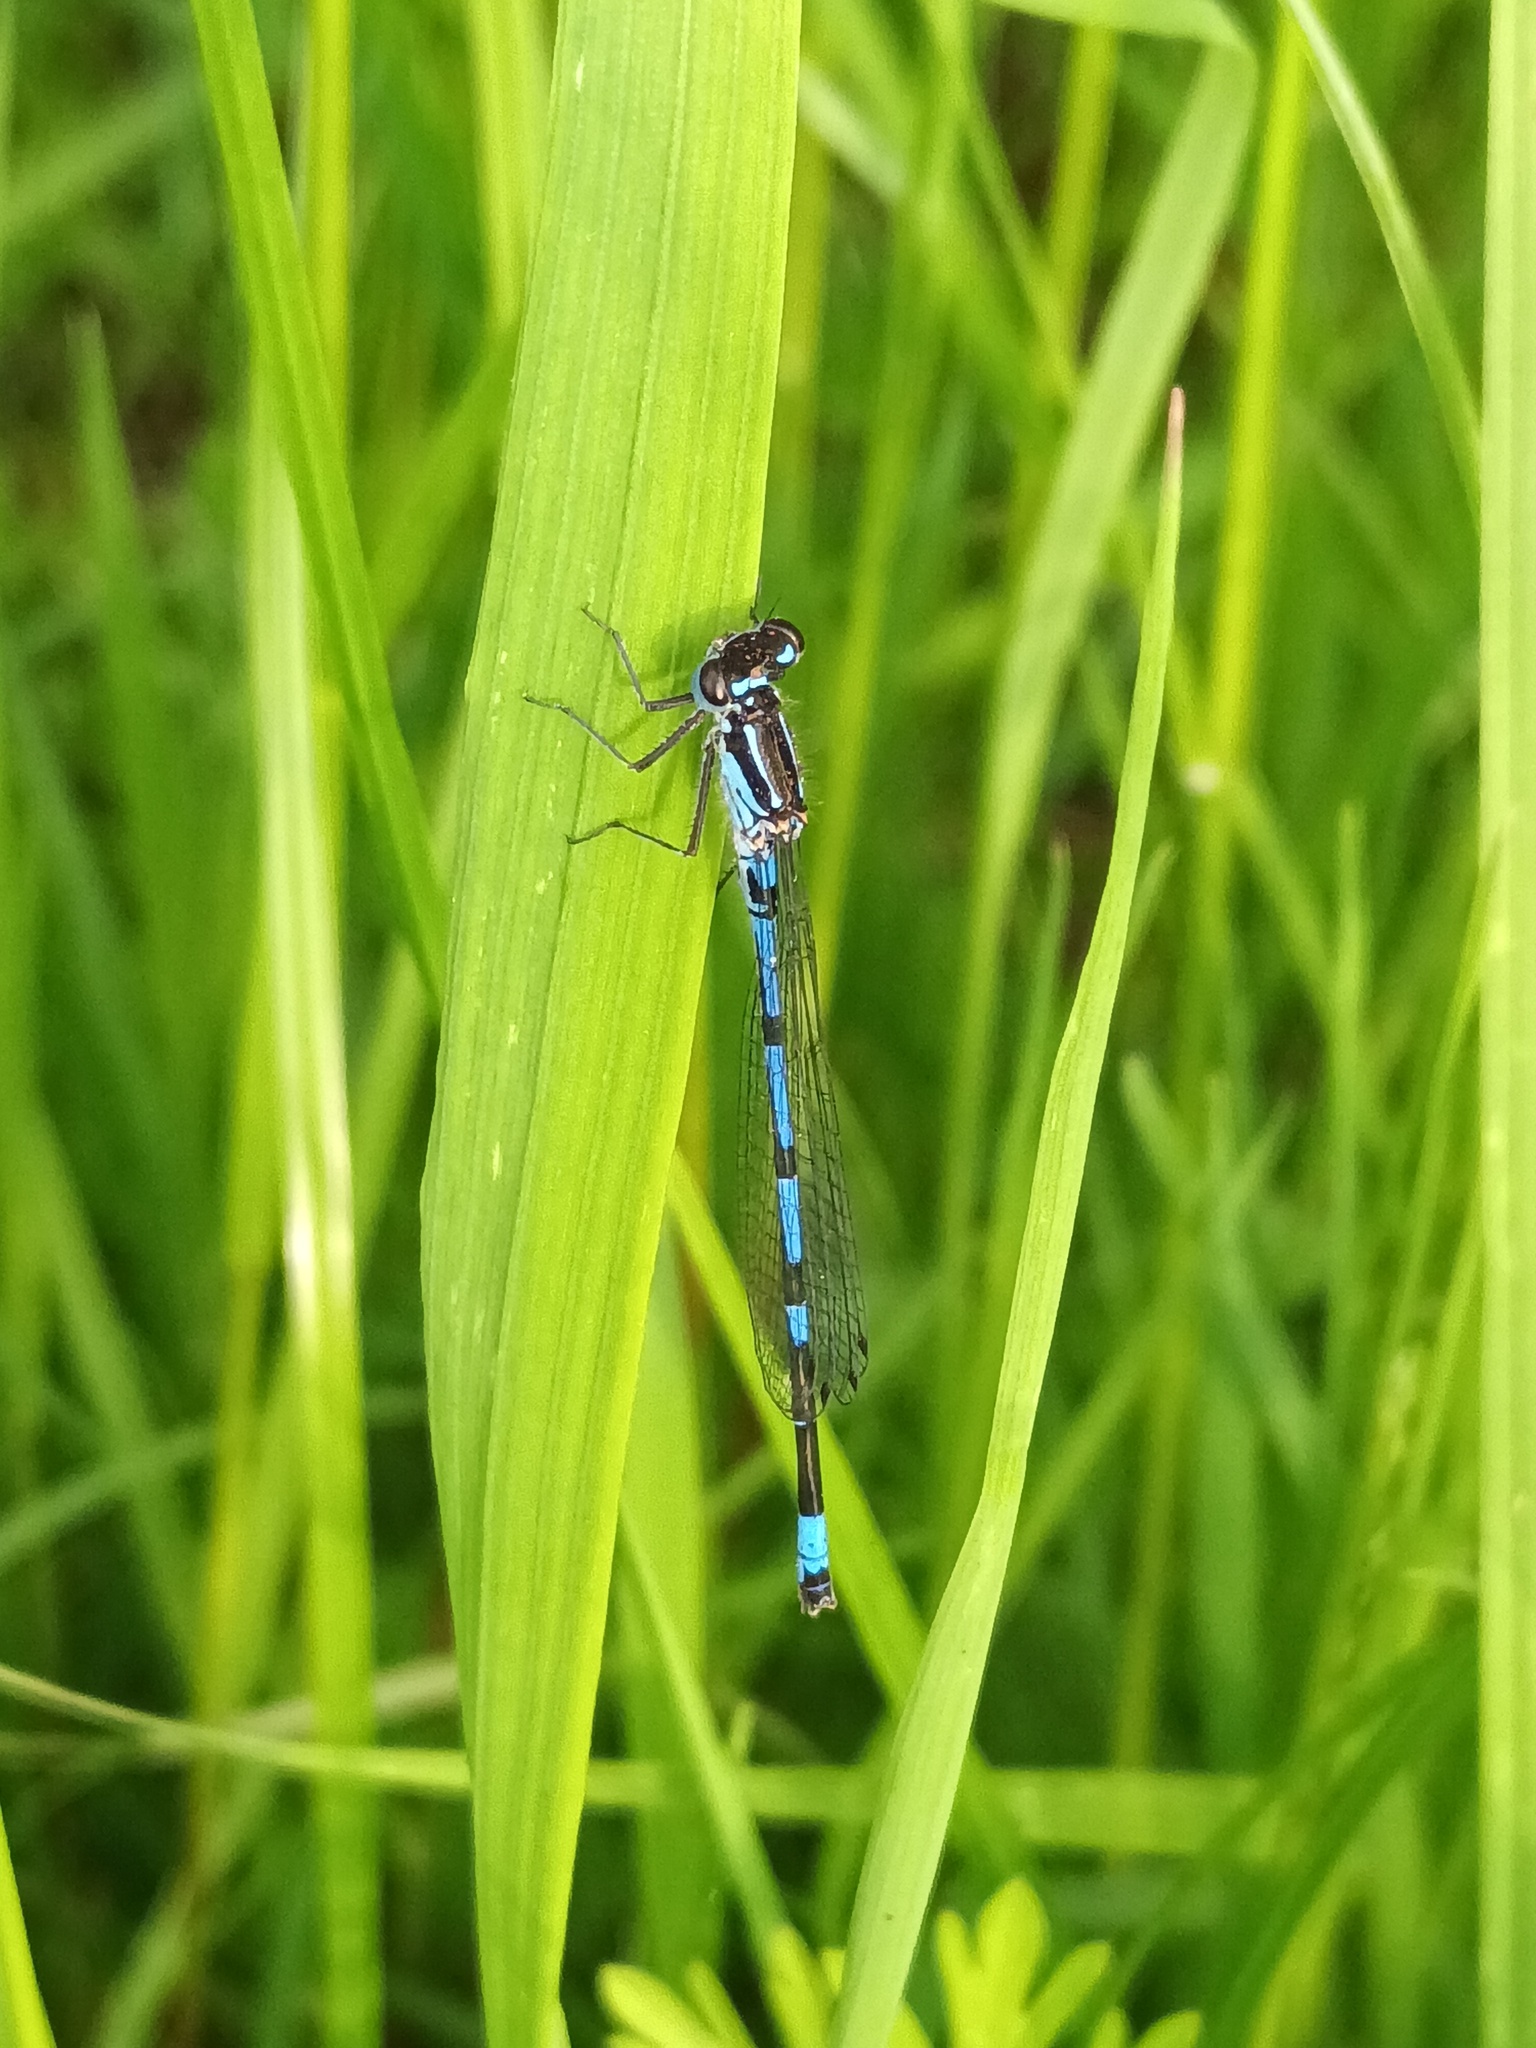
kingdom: Animalia
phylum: Arthropoda
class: Insecta
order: Odonata
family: Coenagrionidae
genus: Coenagrion
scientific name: Coenagrion pulchellum
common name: Variable bluet
